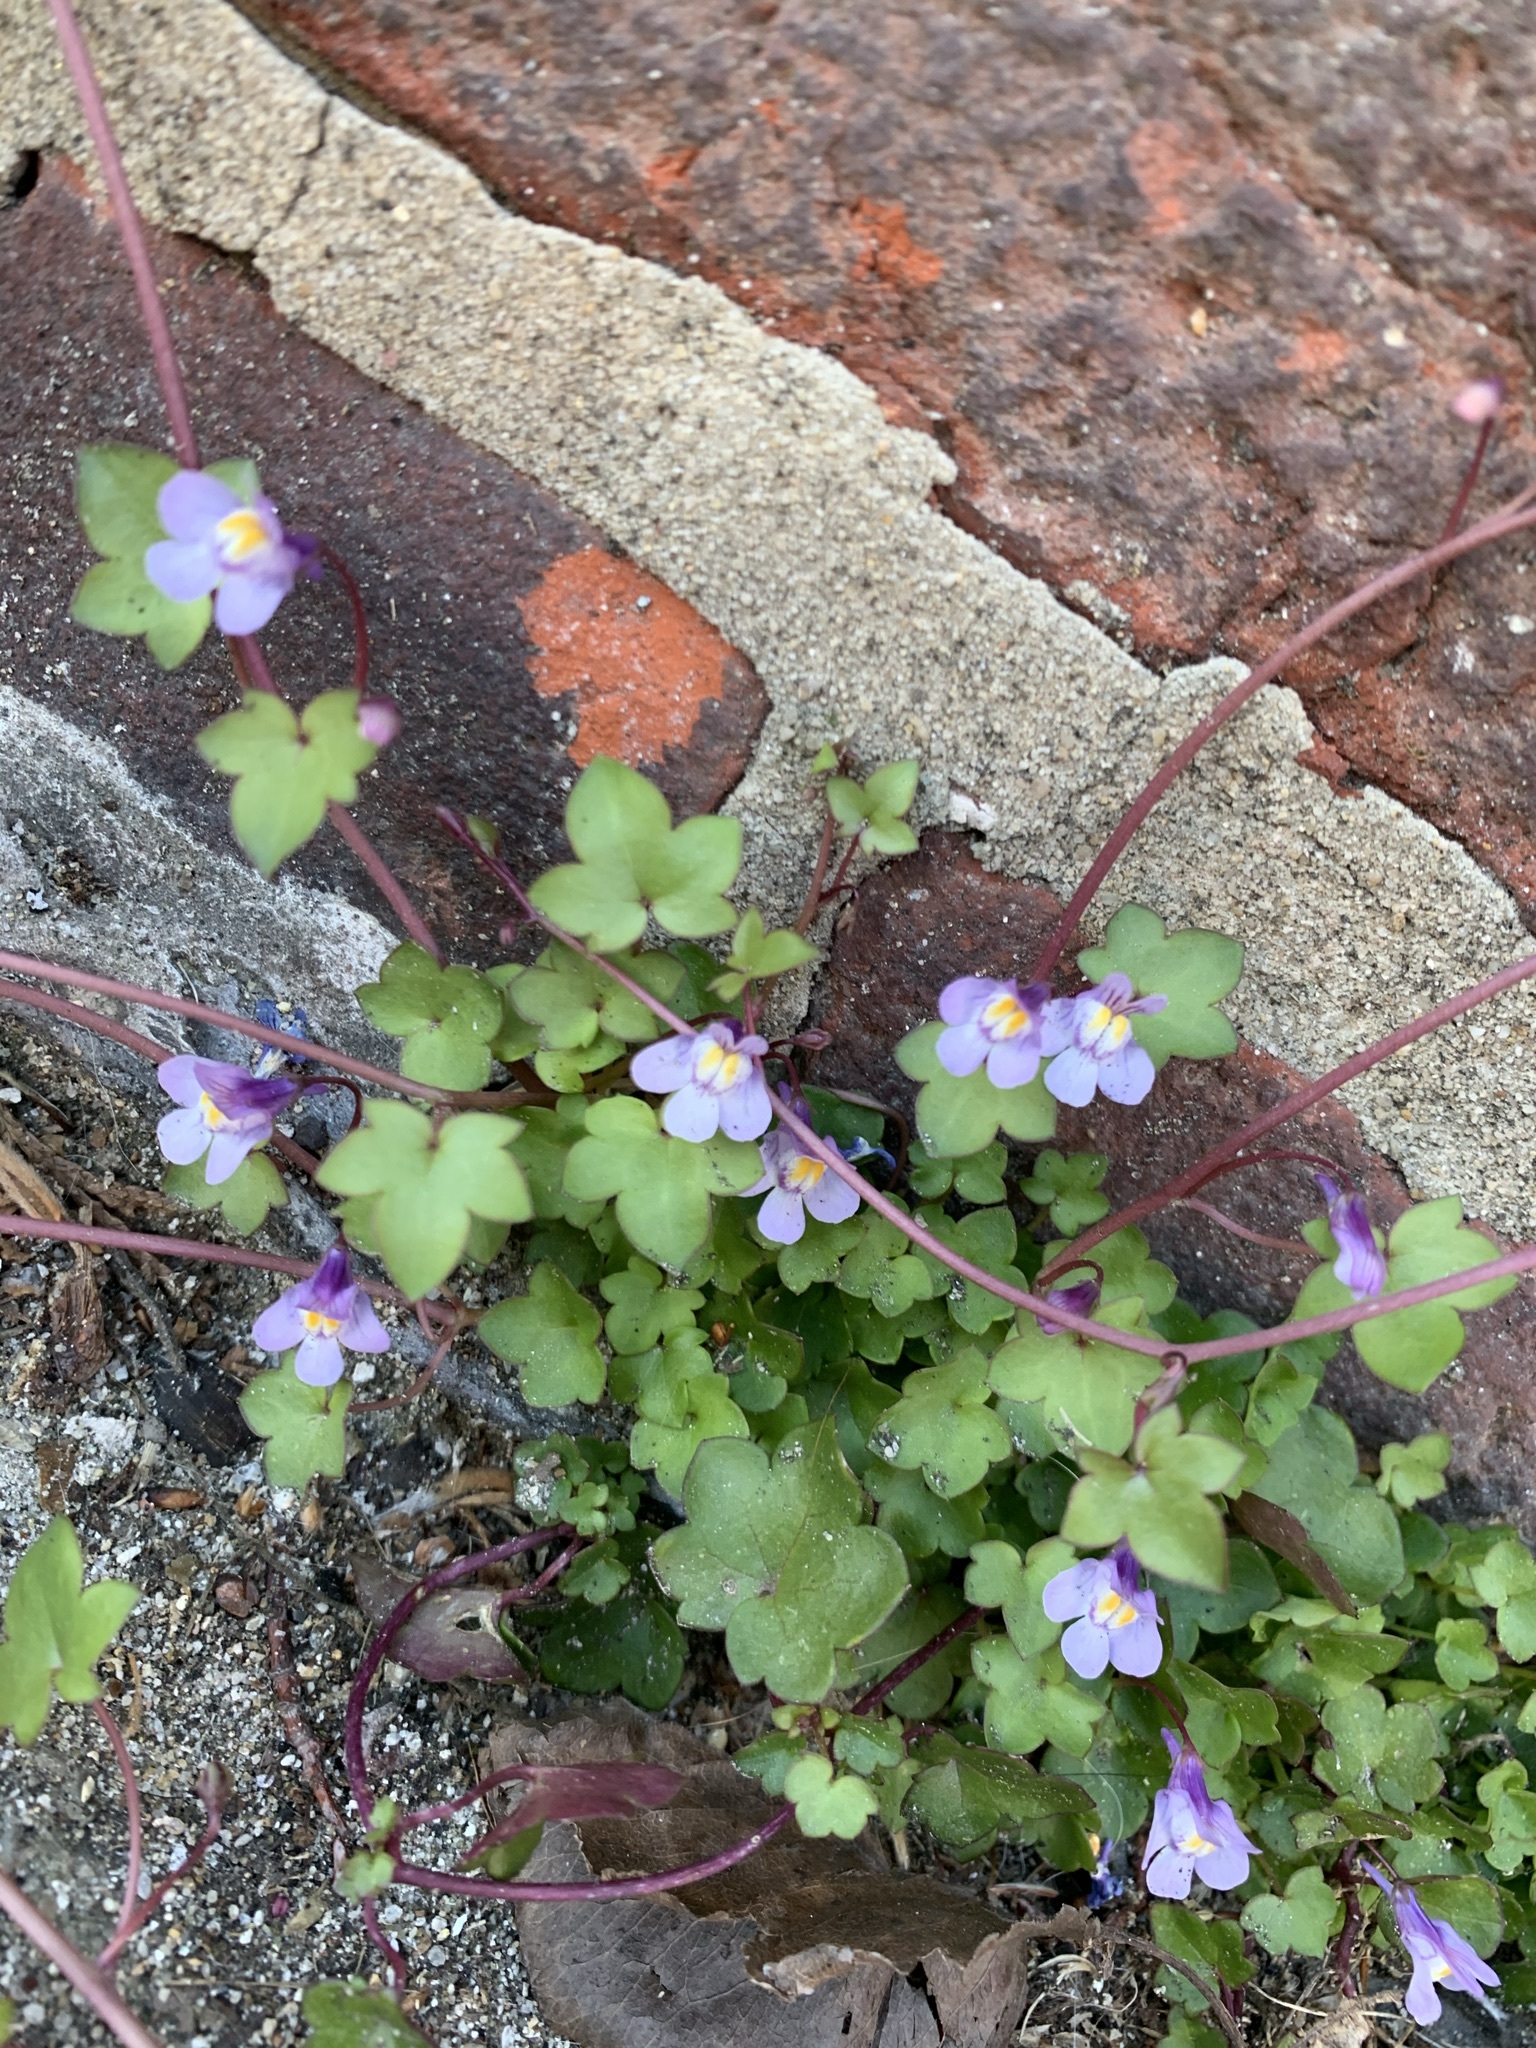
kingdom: Plantae
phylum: Tracheophyta
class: Magnoliopsida
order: Lamiales
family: Plantaginaceae
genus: Cymbalaria
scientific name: Cymbalaria muralis
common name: Ivy-leaved toadflax
